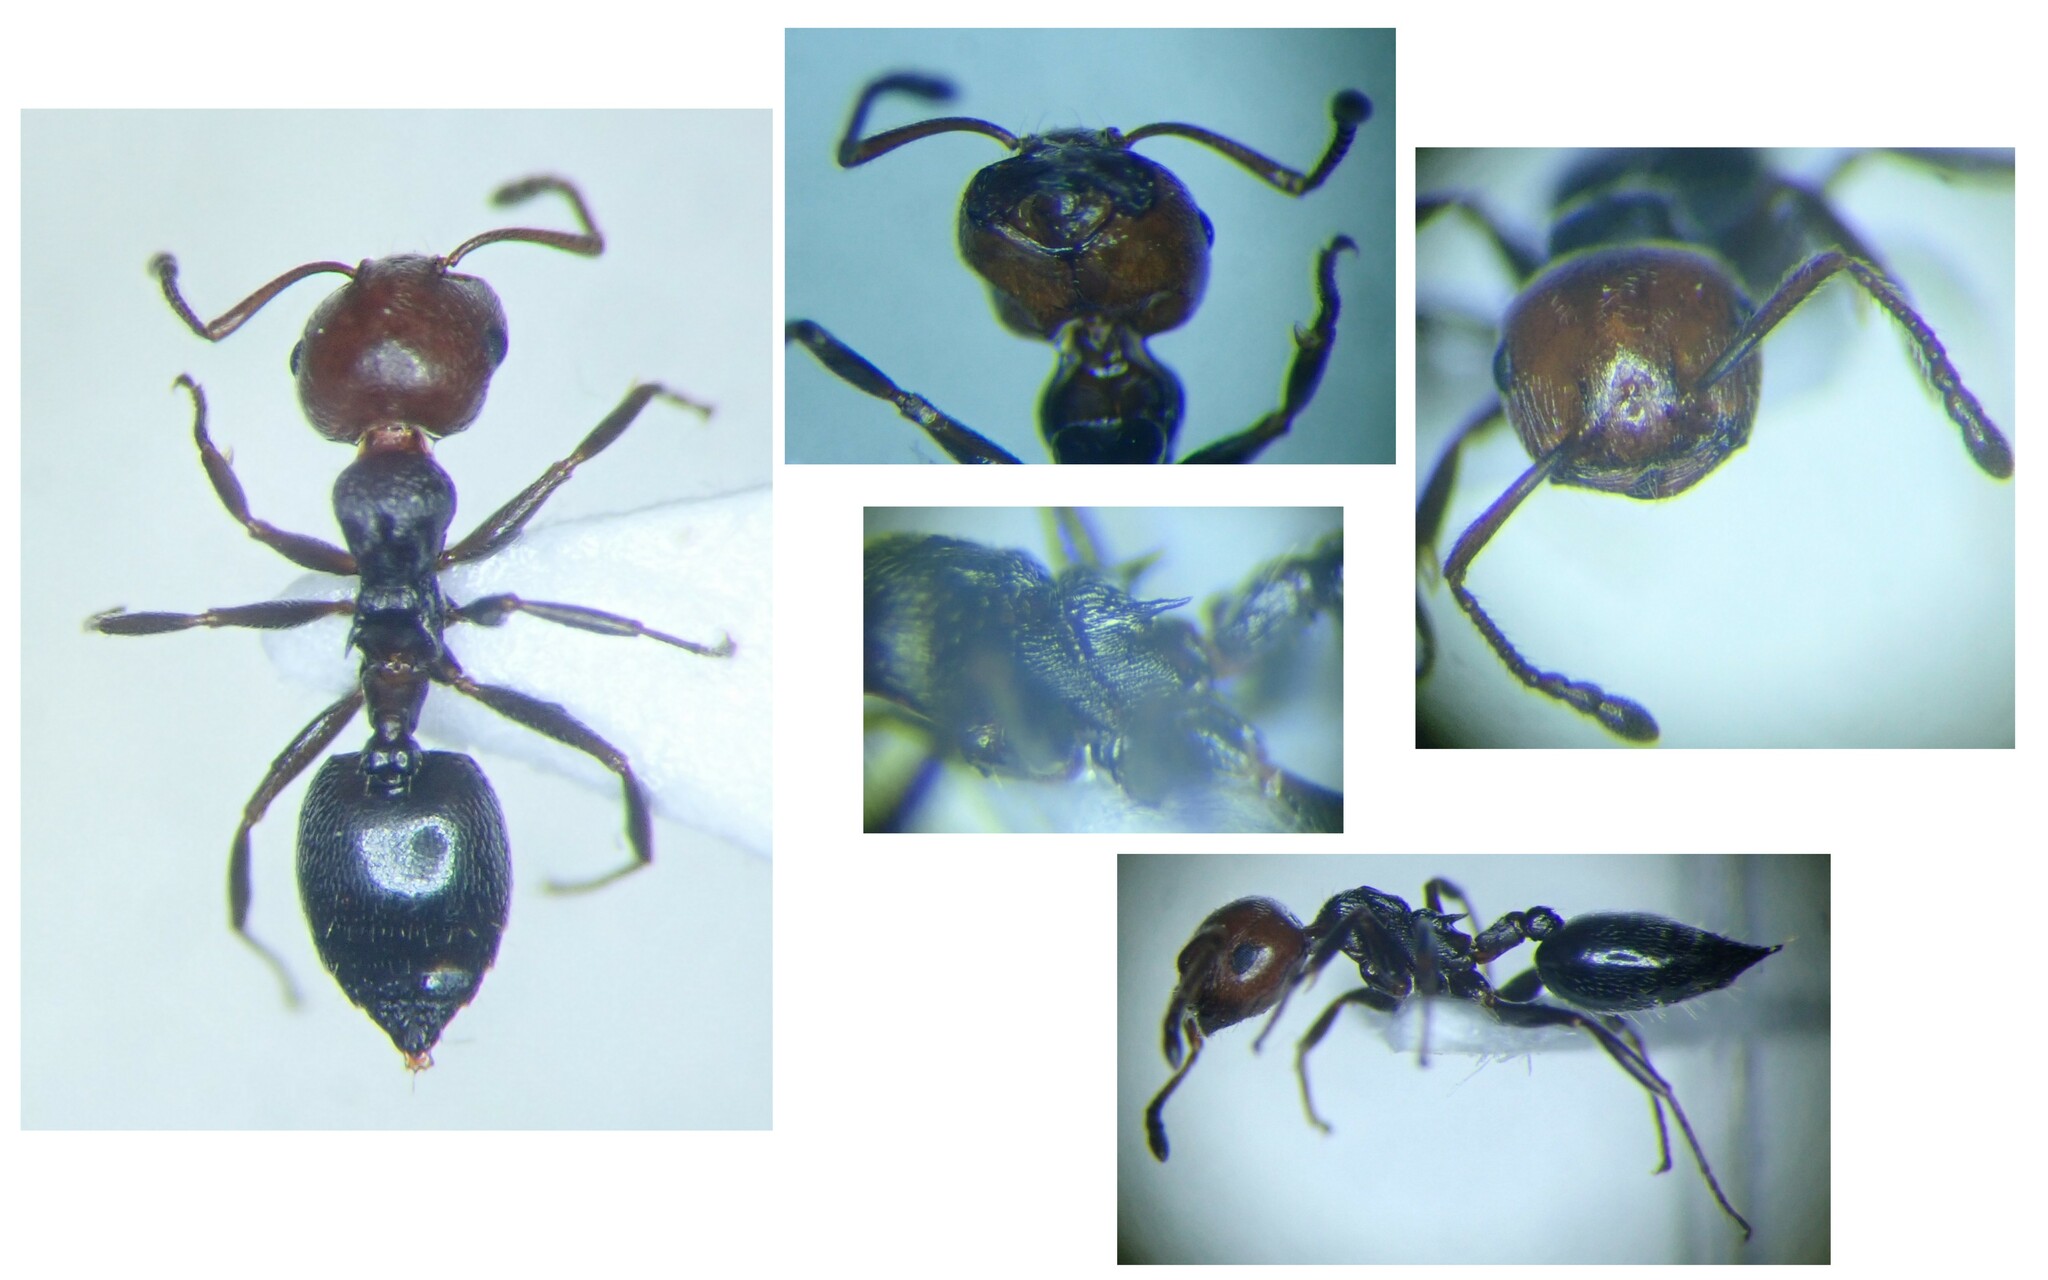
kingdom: Animalia
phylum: Arthropoda
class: Insecta
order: Hymenoptera
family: Formicidae
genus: Crematogaster
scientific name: Crematogaster scutellaris
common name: Fourmi du liège
